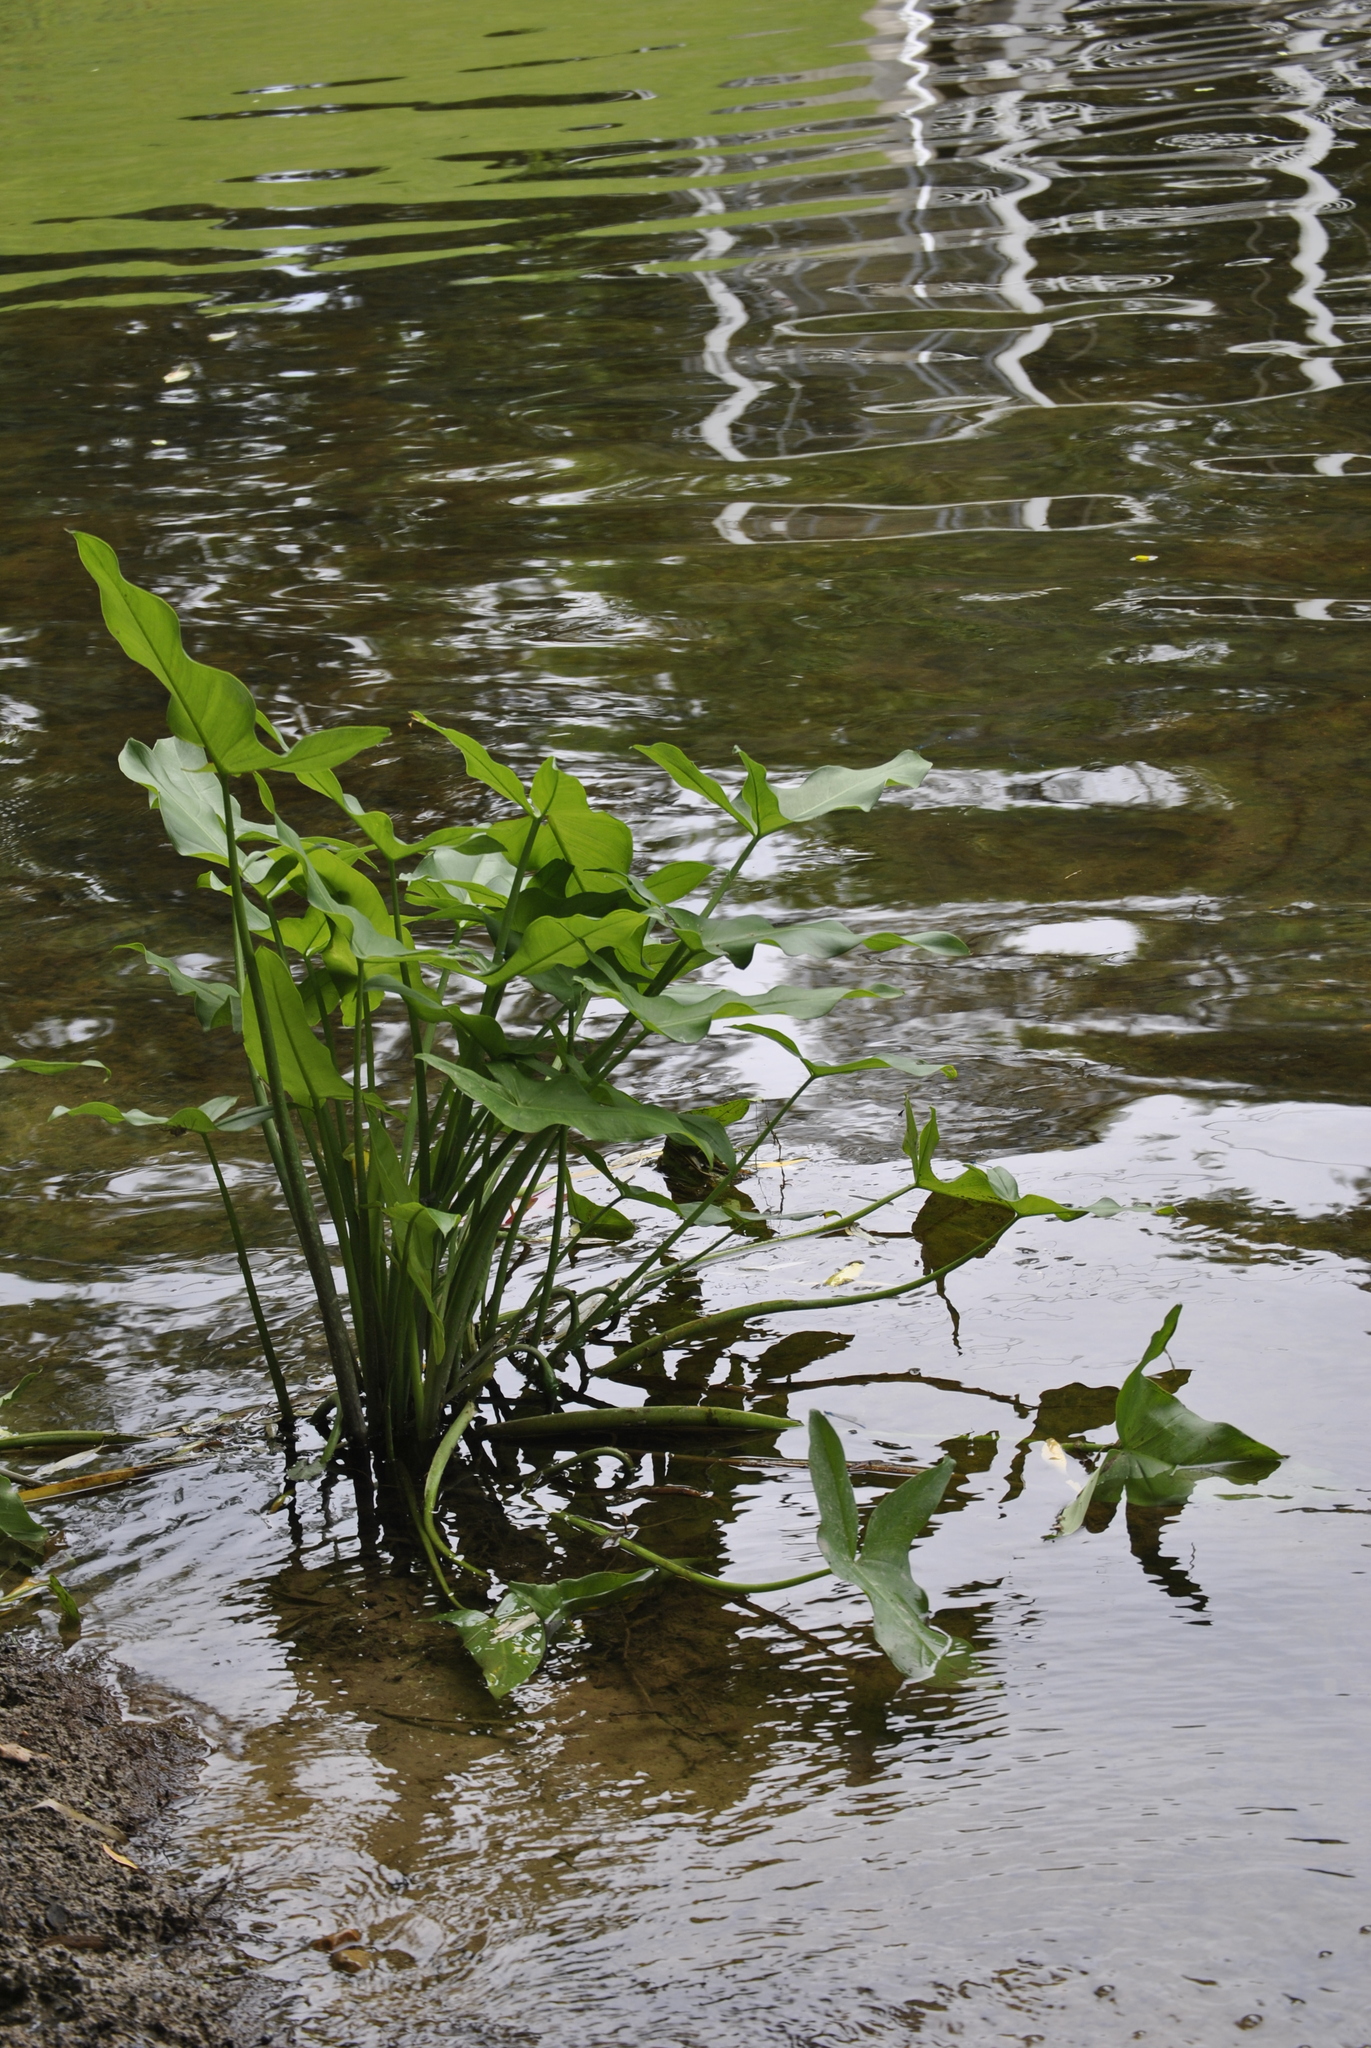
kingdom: Plantae
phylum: Tracheophyta
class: Liliopsida
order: Alismatales
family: Araceae
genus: Peltandra
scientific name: Peltandra virginica
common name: Arrow arum
